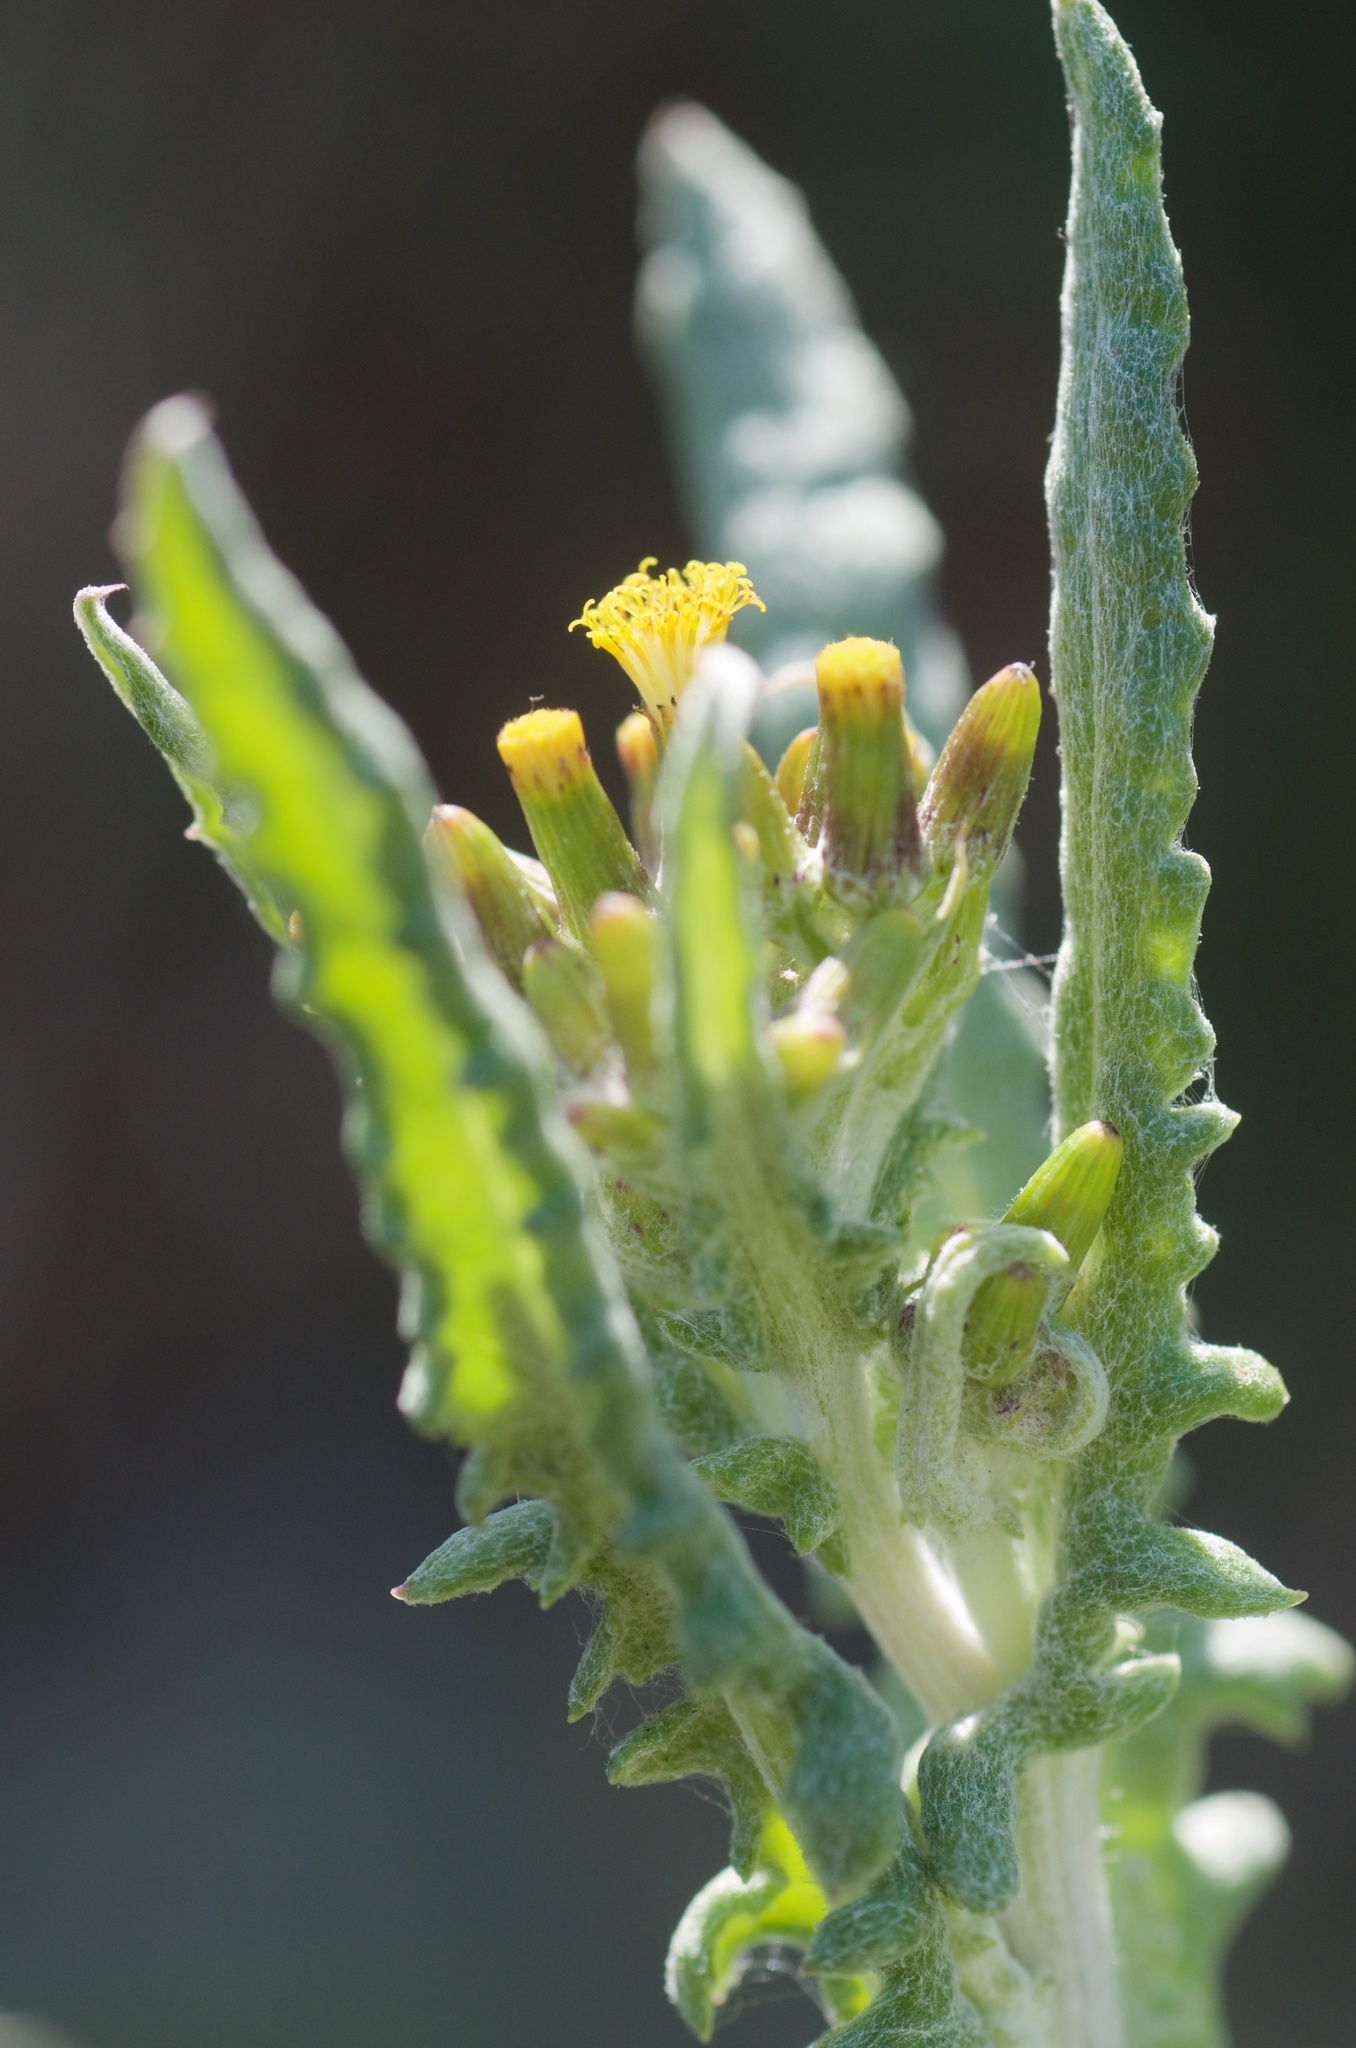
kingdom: Plantae
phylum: Tracheophyta
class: Magnoliopsida
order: Asterales
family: Asteraceae
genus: Senecio
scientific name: Senecio glomeratus
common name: Cutleaf burnweed
